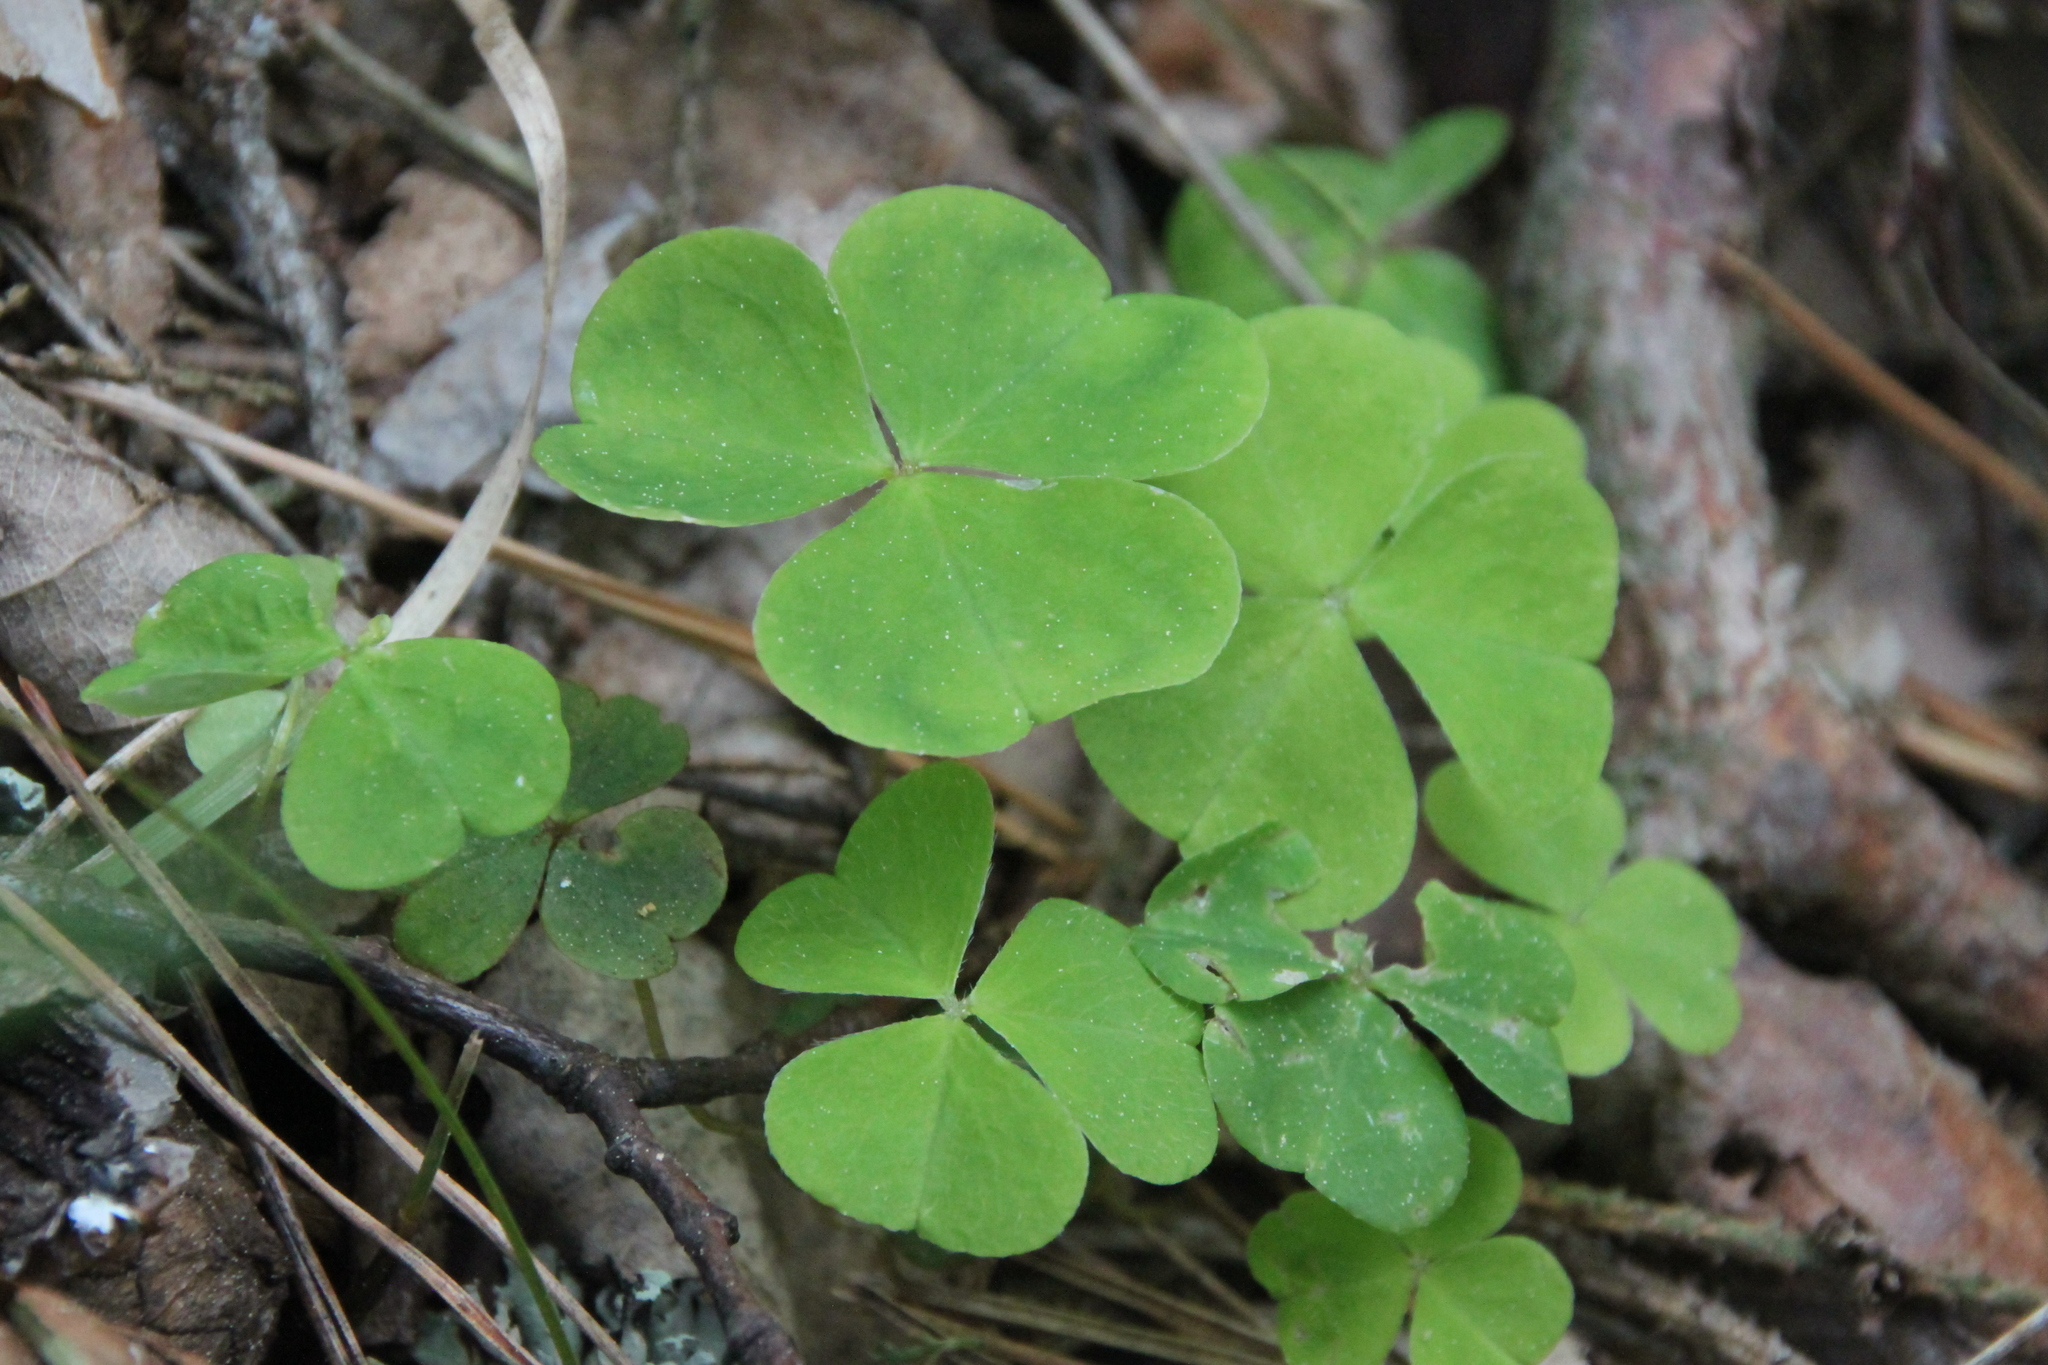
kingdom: Plantae
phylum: Tracheophyta
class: Magnoliopsida
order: Oxalidales
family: Oxalidaceae
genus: Oxalis
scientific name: Oxalis acetosella
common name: Wood-sorrel
